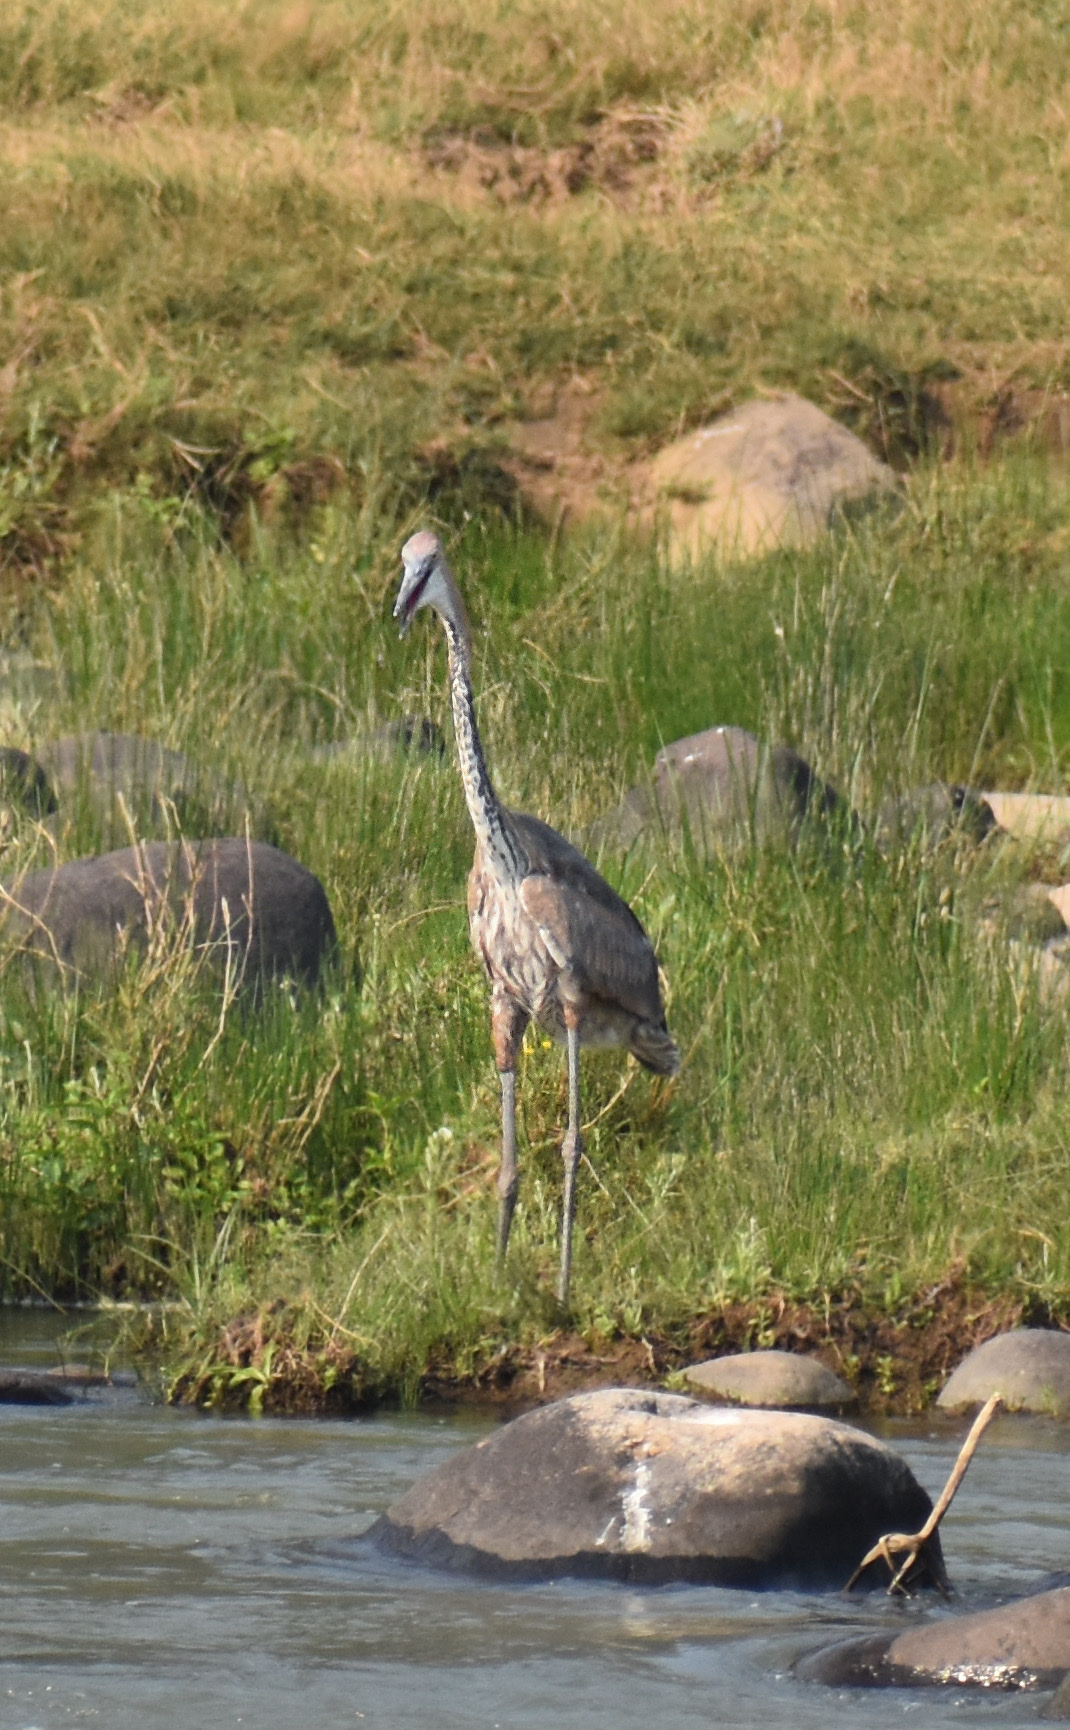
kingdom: Animalia
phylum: Chordata
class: Aves
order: Pelecaniformes
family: Ardeidae
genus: Ardea
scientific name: Ardea goliath
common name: Goliath heron
